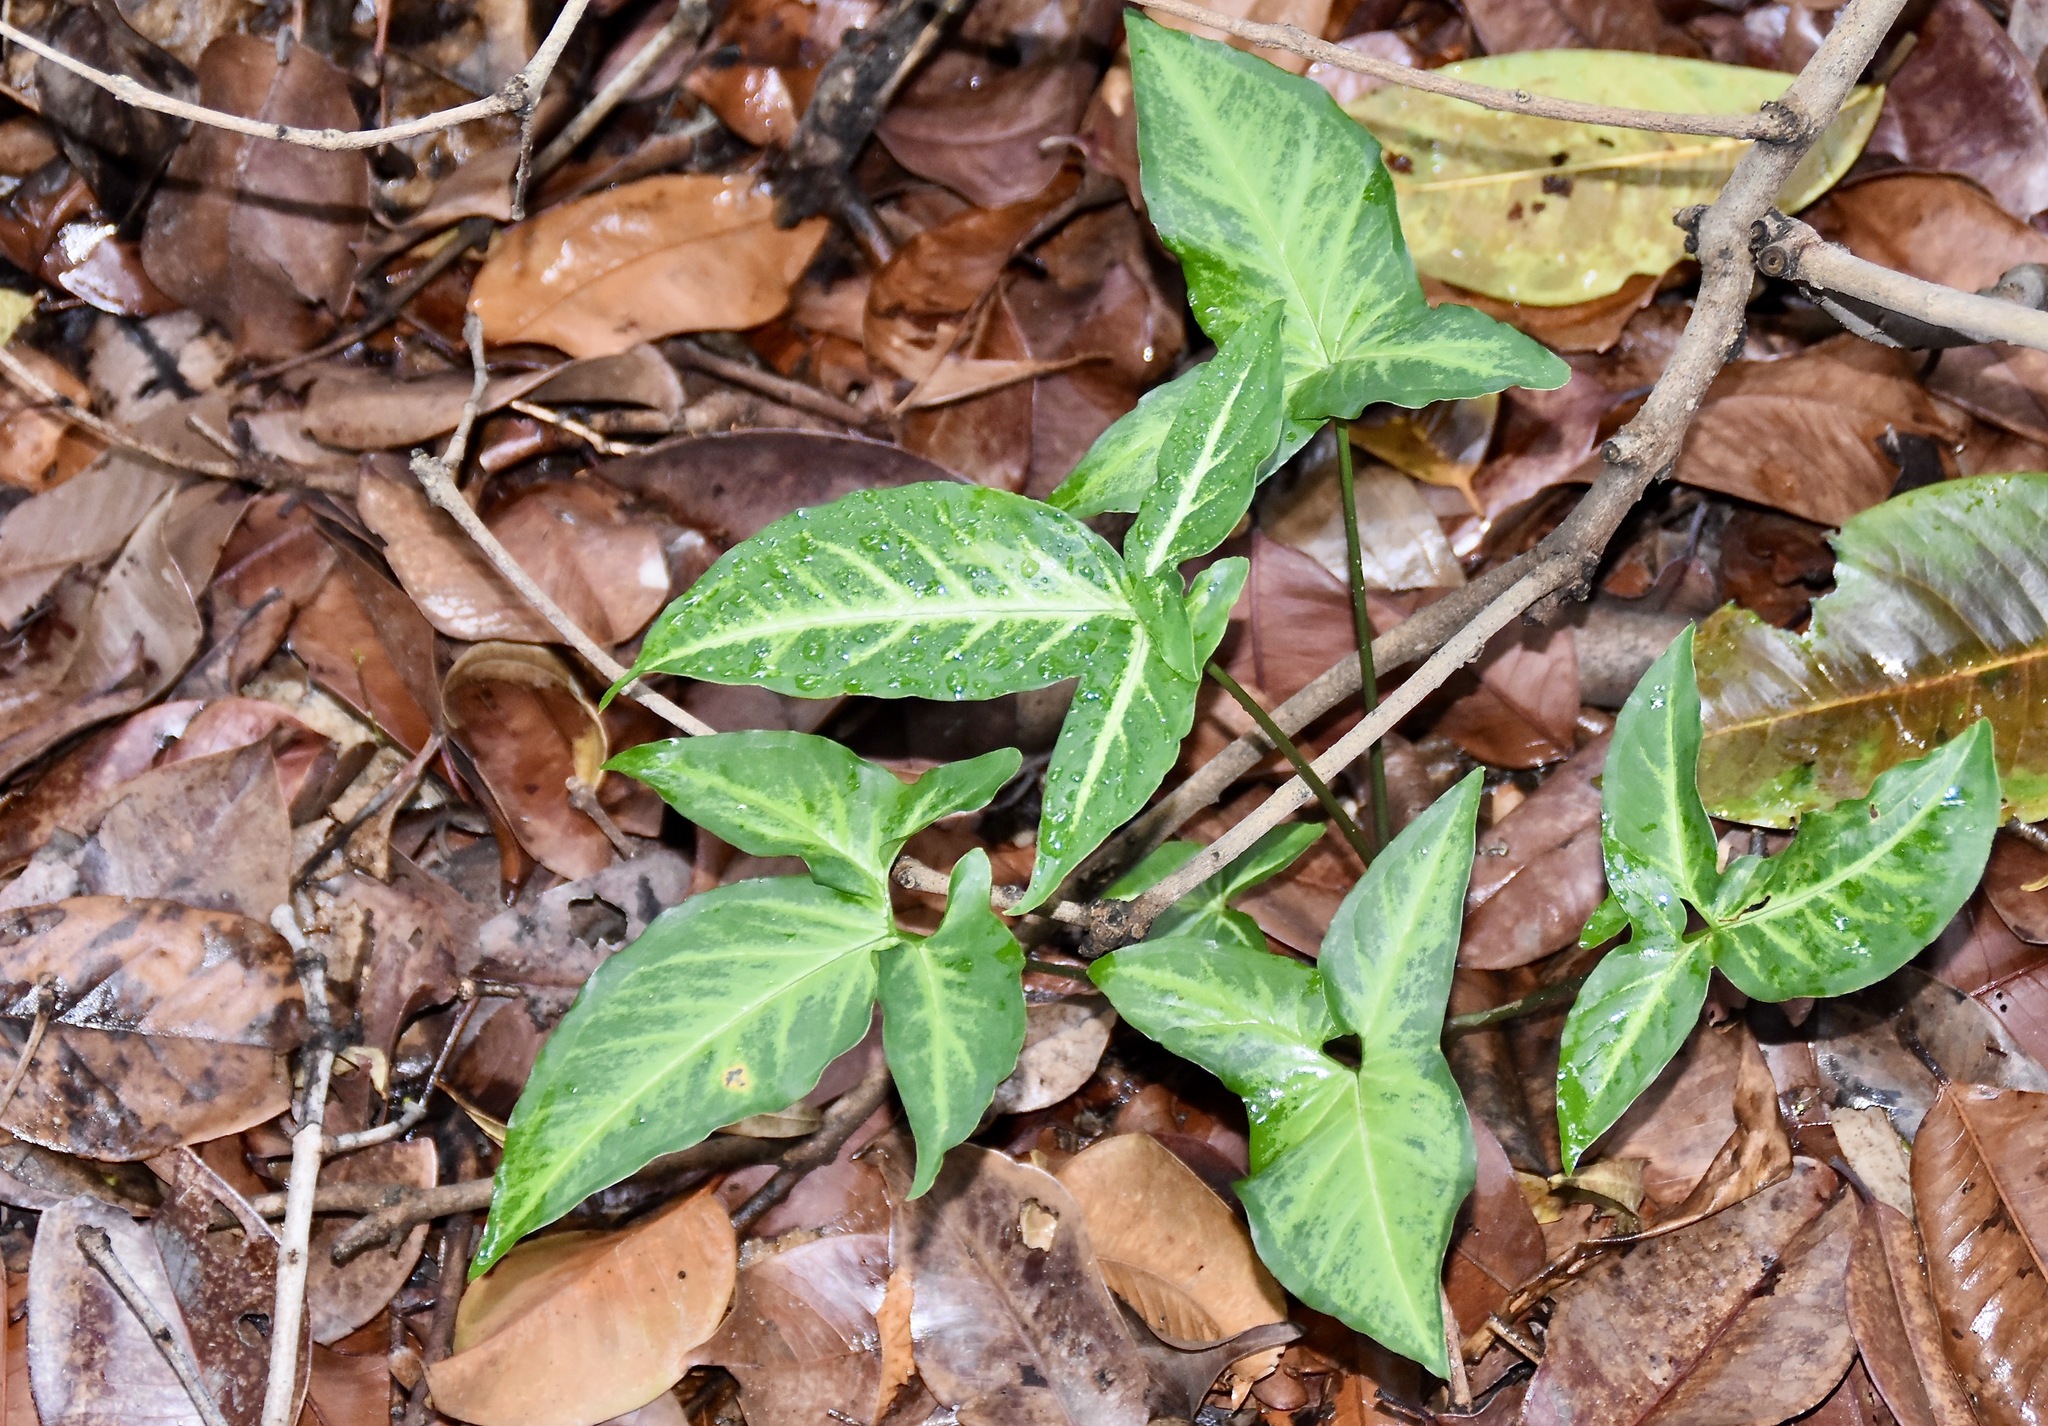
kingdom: Plantae
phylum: Tracheophyta
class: Liliopsida
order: Alismatales
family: Araceae
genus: Syngonium
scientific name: Syngonium podophyllum
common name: American evergreen
